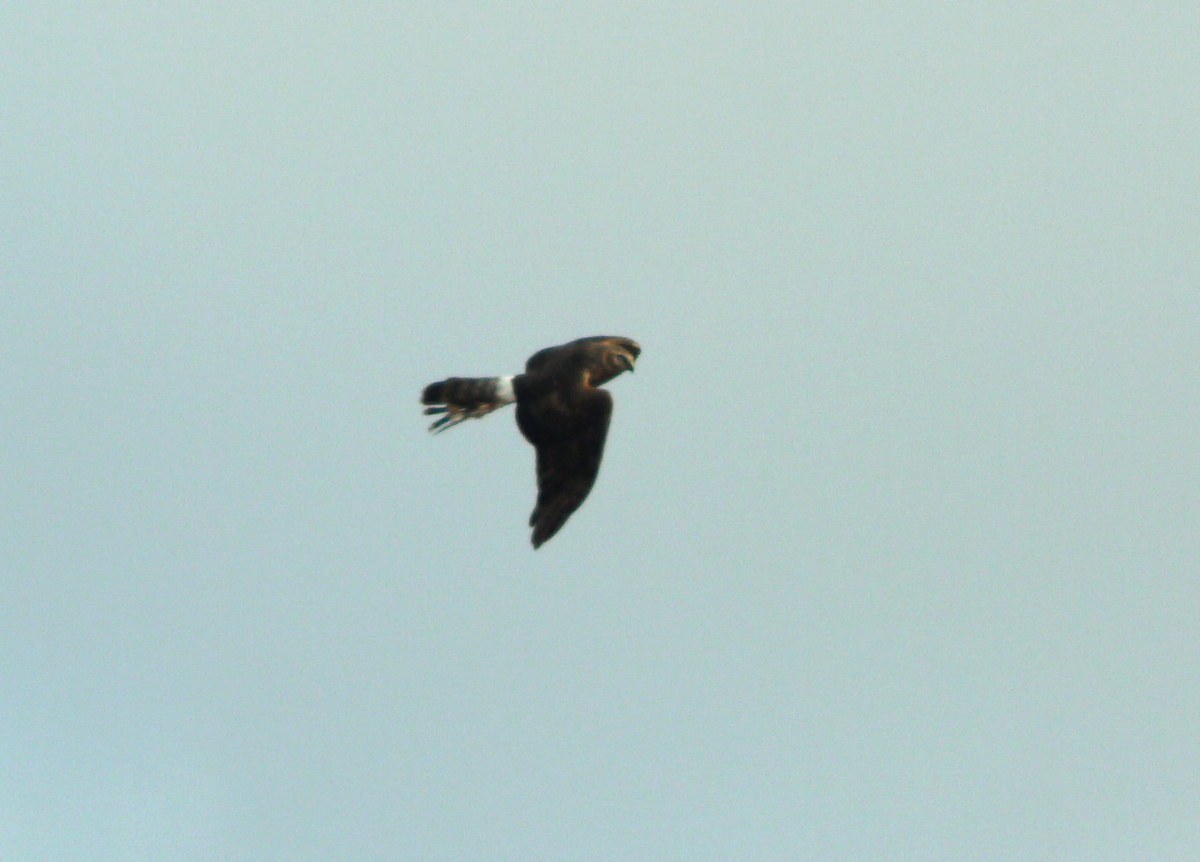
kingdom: Animalia
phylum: Chordata
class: Aves
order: Accipitriformes
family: Accipitridae
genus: Circus
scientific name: Circus cyaneus
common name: Hen harrier
